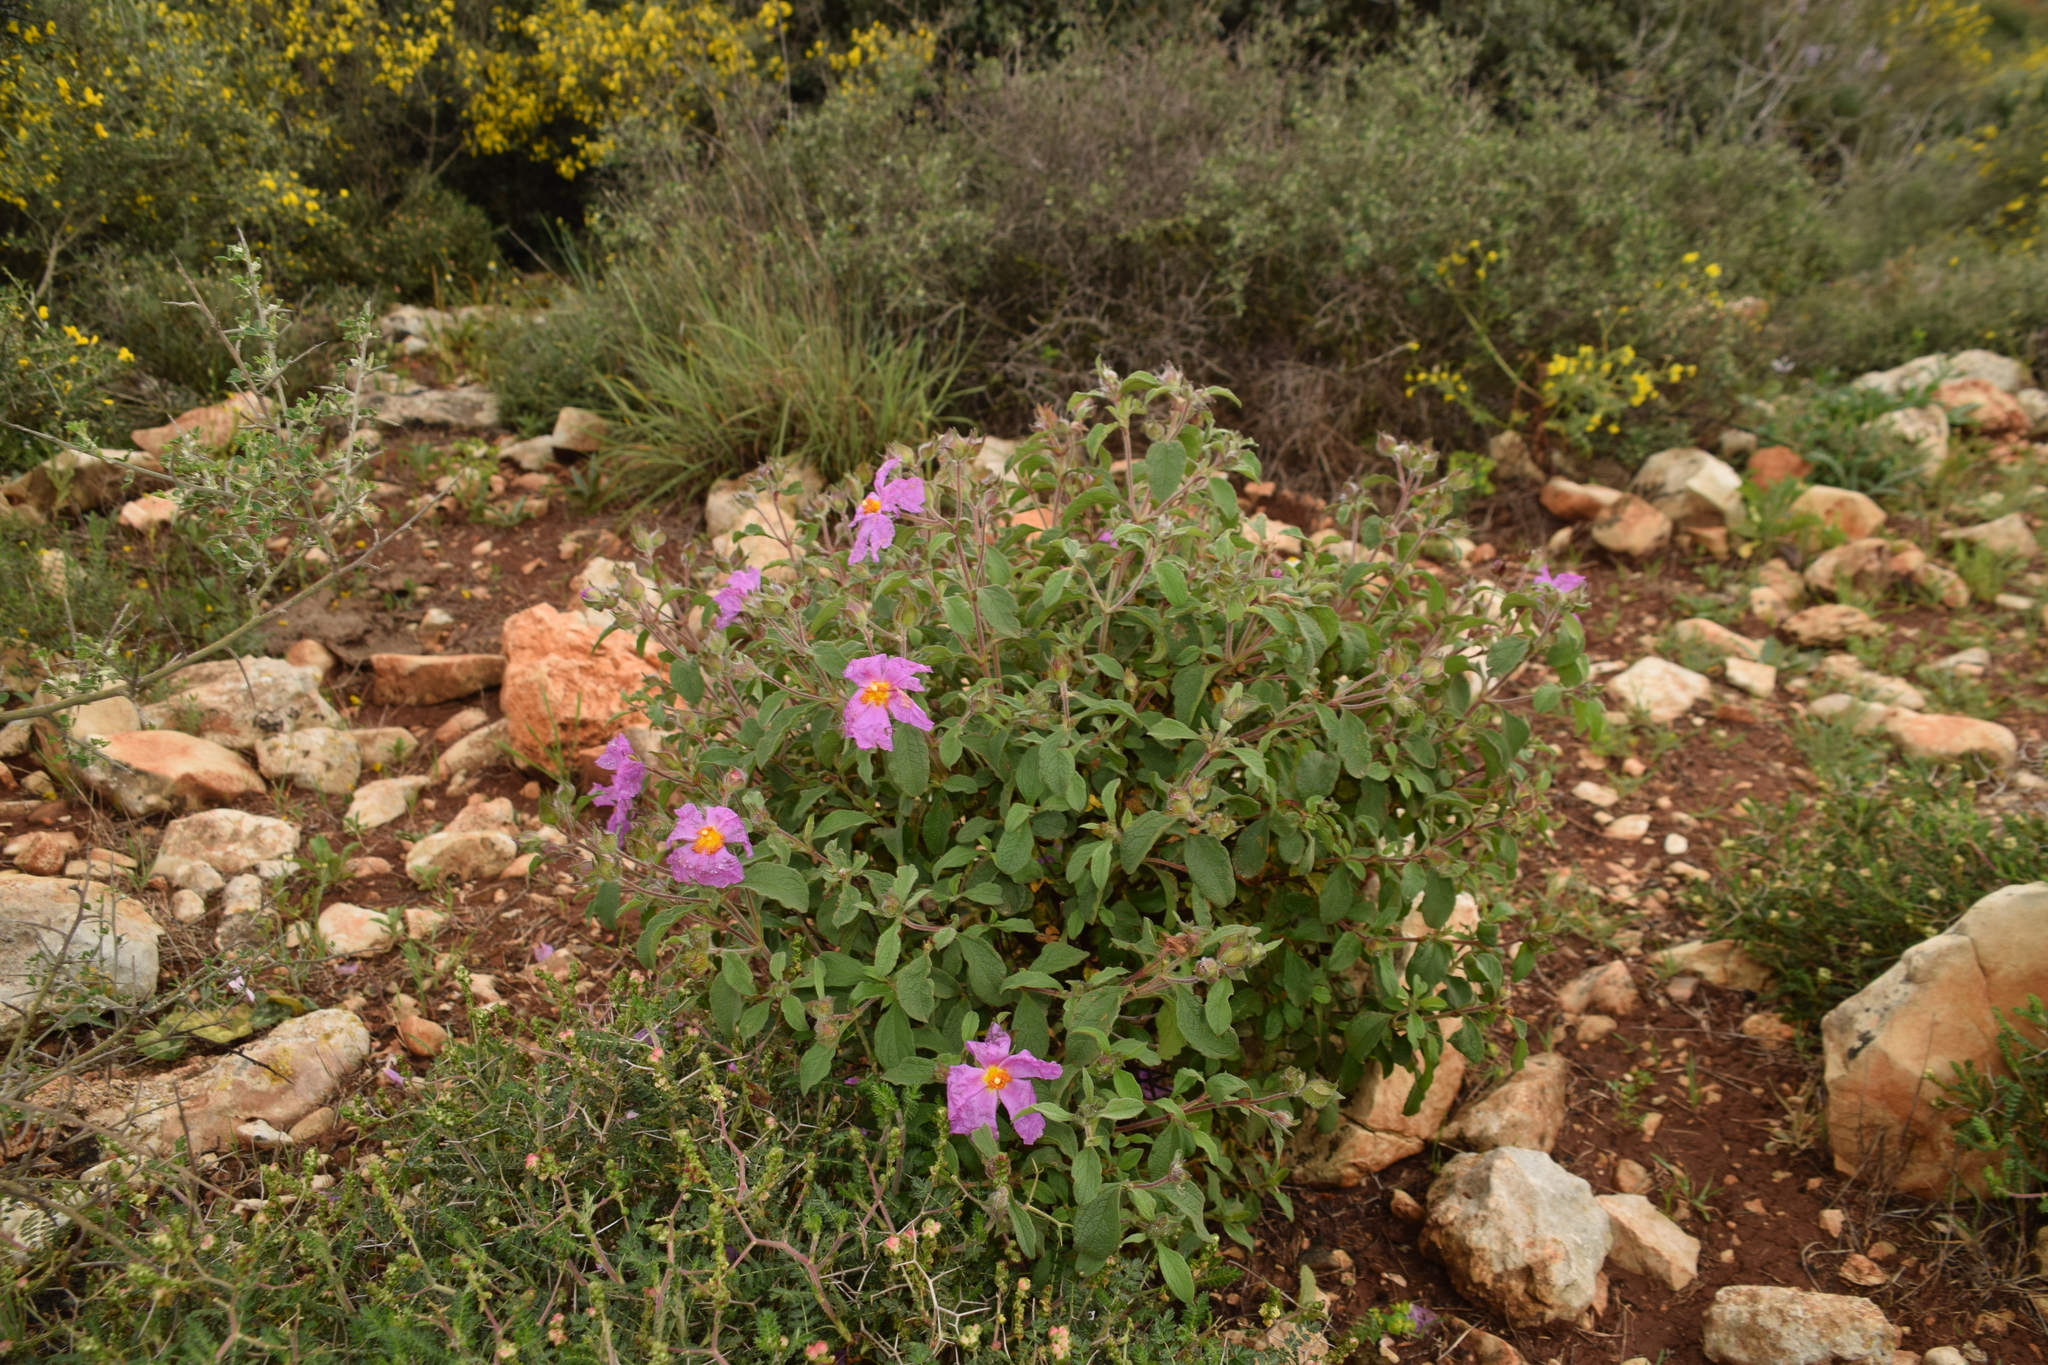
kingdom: Plantae
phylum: Tracheophyta
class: Magnoliopsida
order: Malvales
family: Cistaceae
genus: Cistus
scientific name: Cistus creticus
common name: Cretan rockrose
